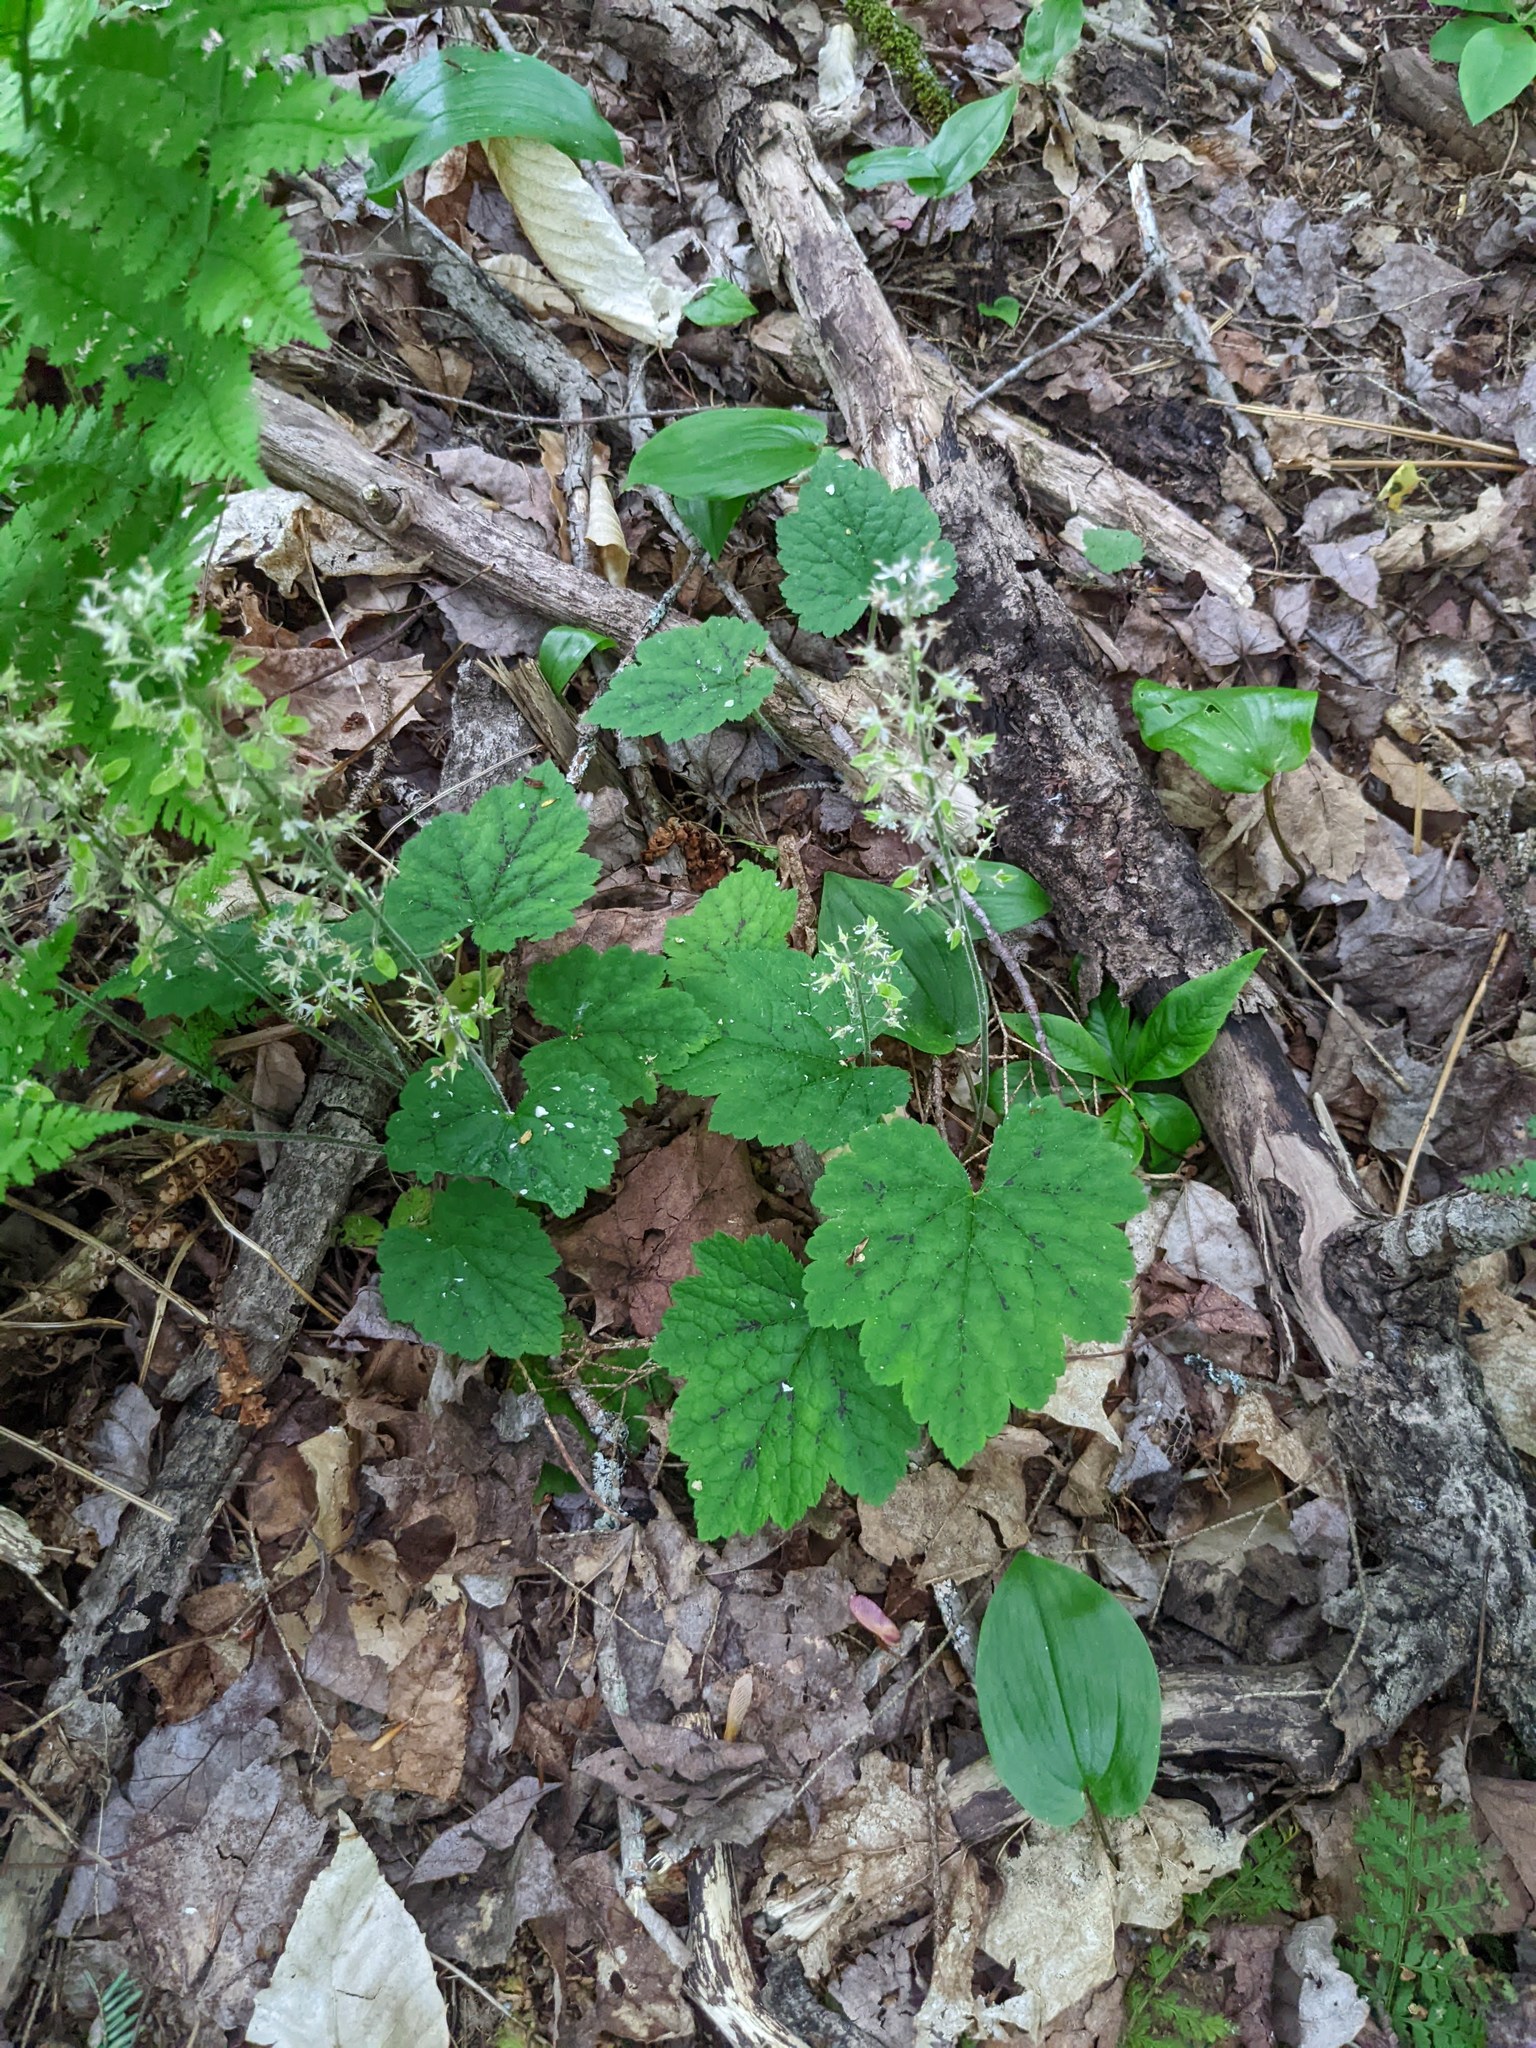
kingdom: Plantae
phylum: Tracheophyta
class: Magnoliopsida
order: Saxifragales
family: Saxifragaceae
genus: Tiarella
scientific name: Tiarella stolonifera
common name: Stoloniferous foamflower
